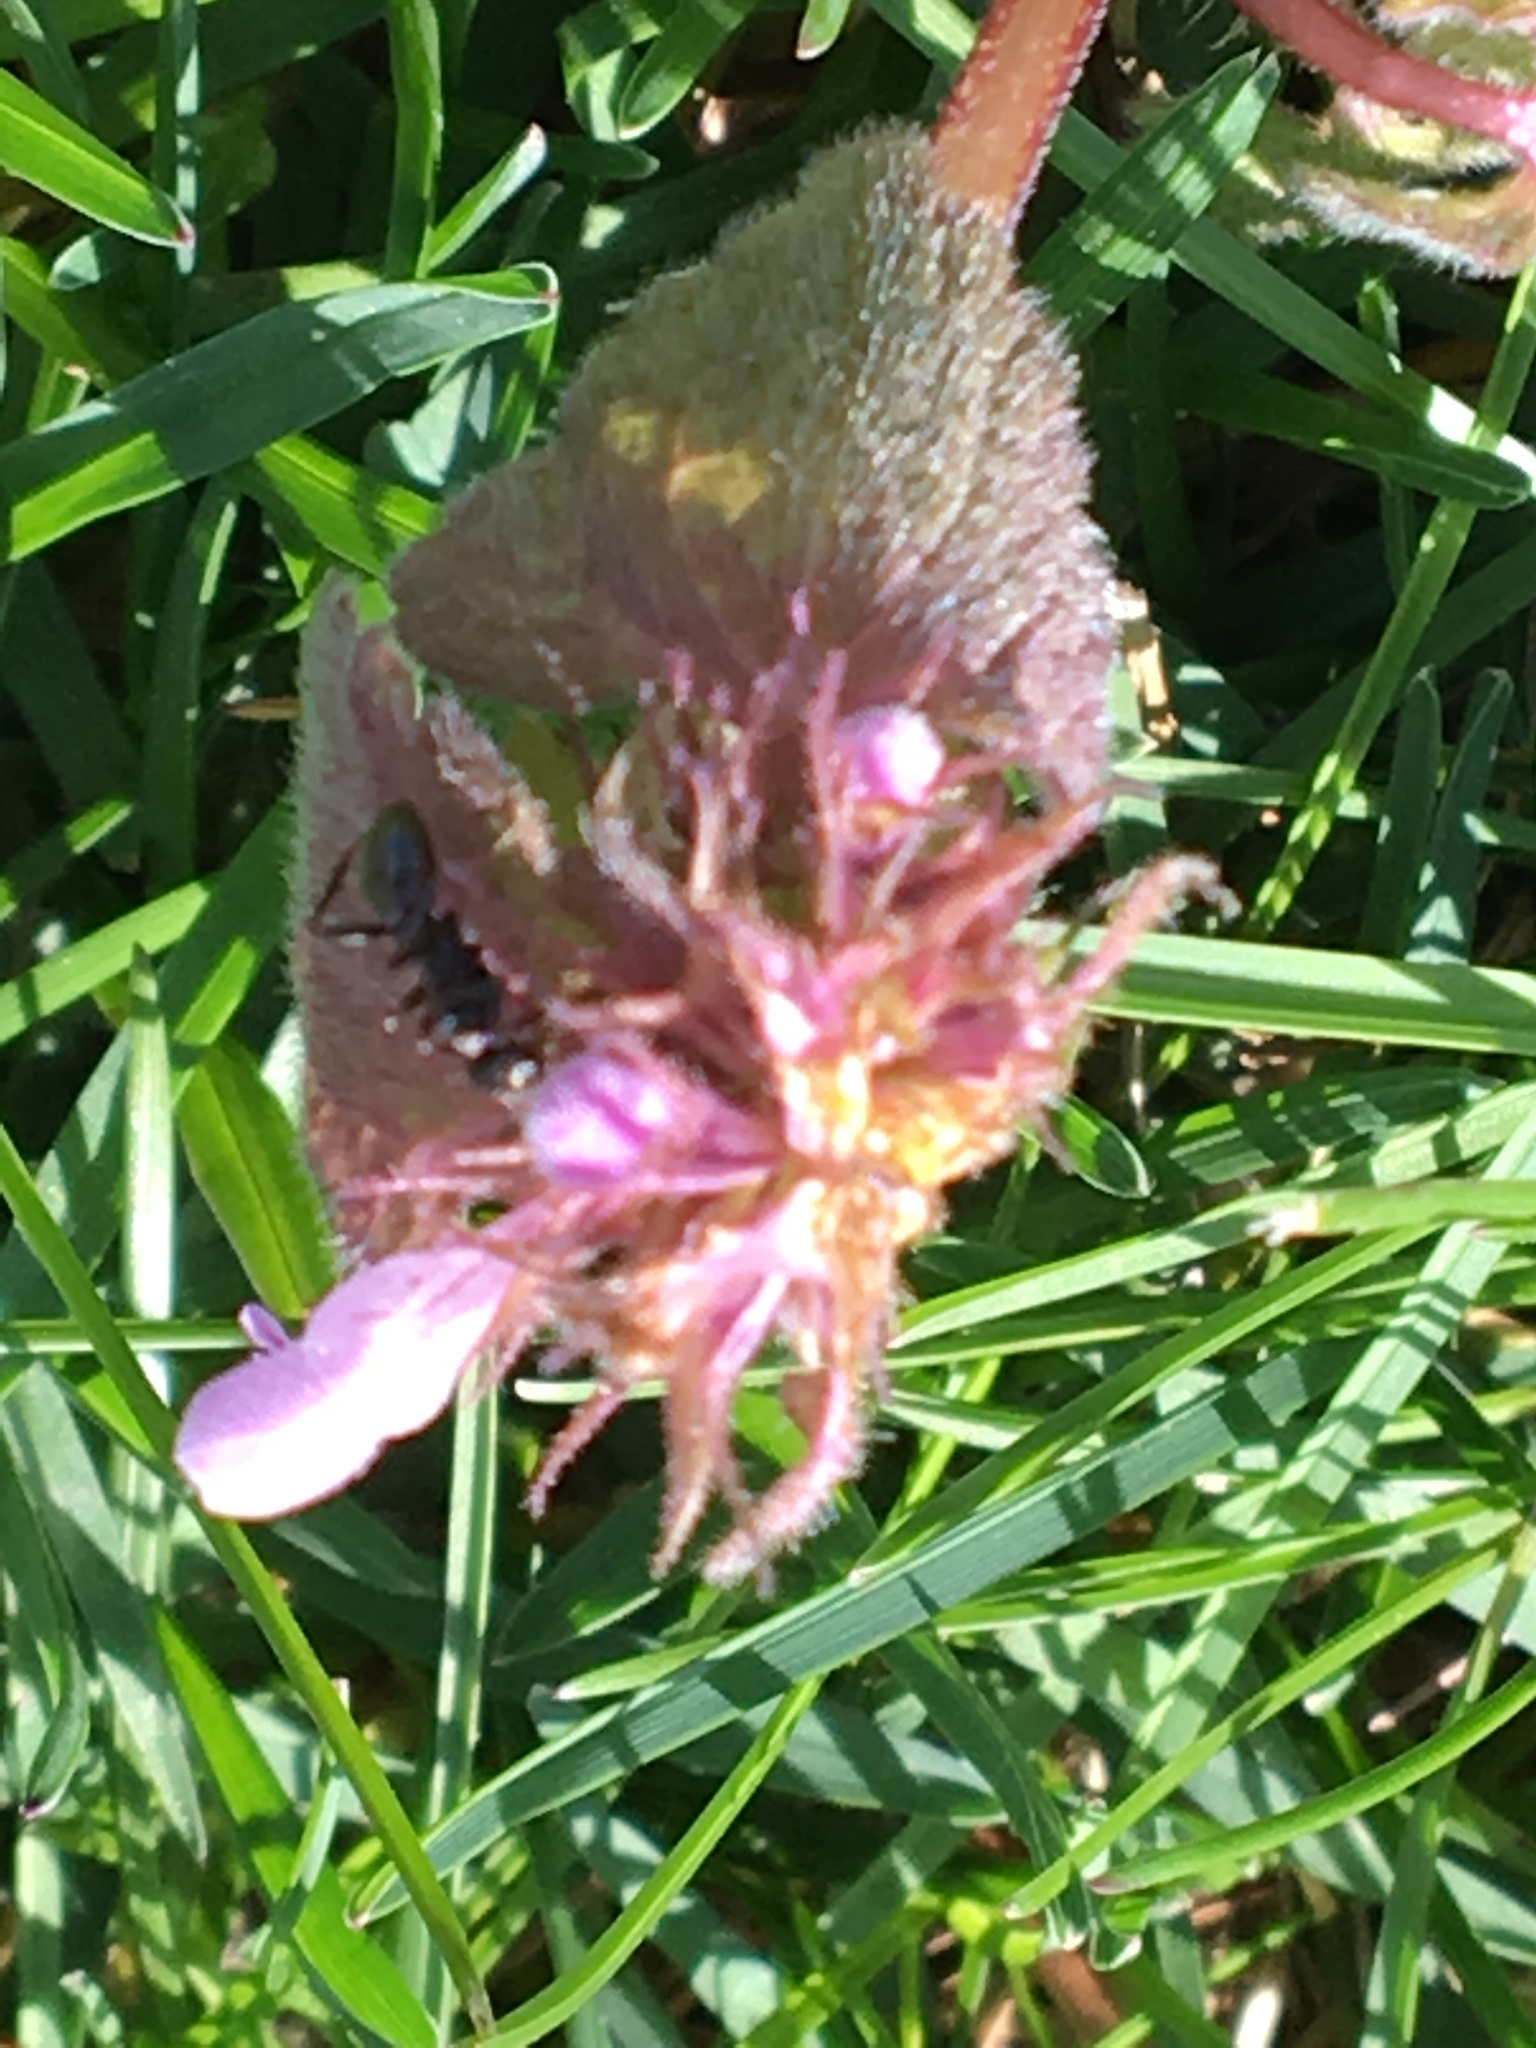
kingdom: Plantae
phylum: Tracheophyta
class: Magnoliopsida
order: Lamiales
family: Lamiaceae
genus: Lamium
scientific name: Lamium purpureum
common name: Red dead-nettle
